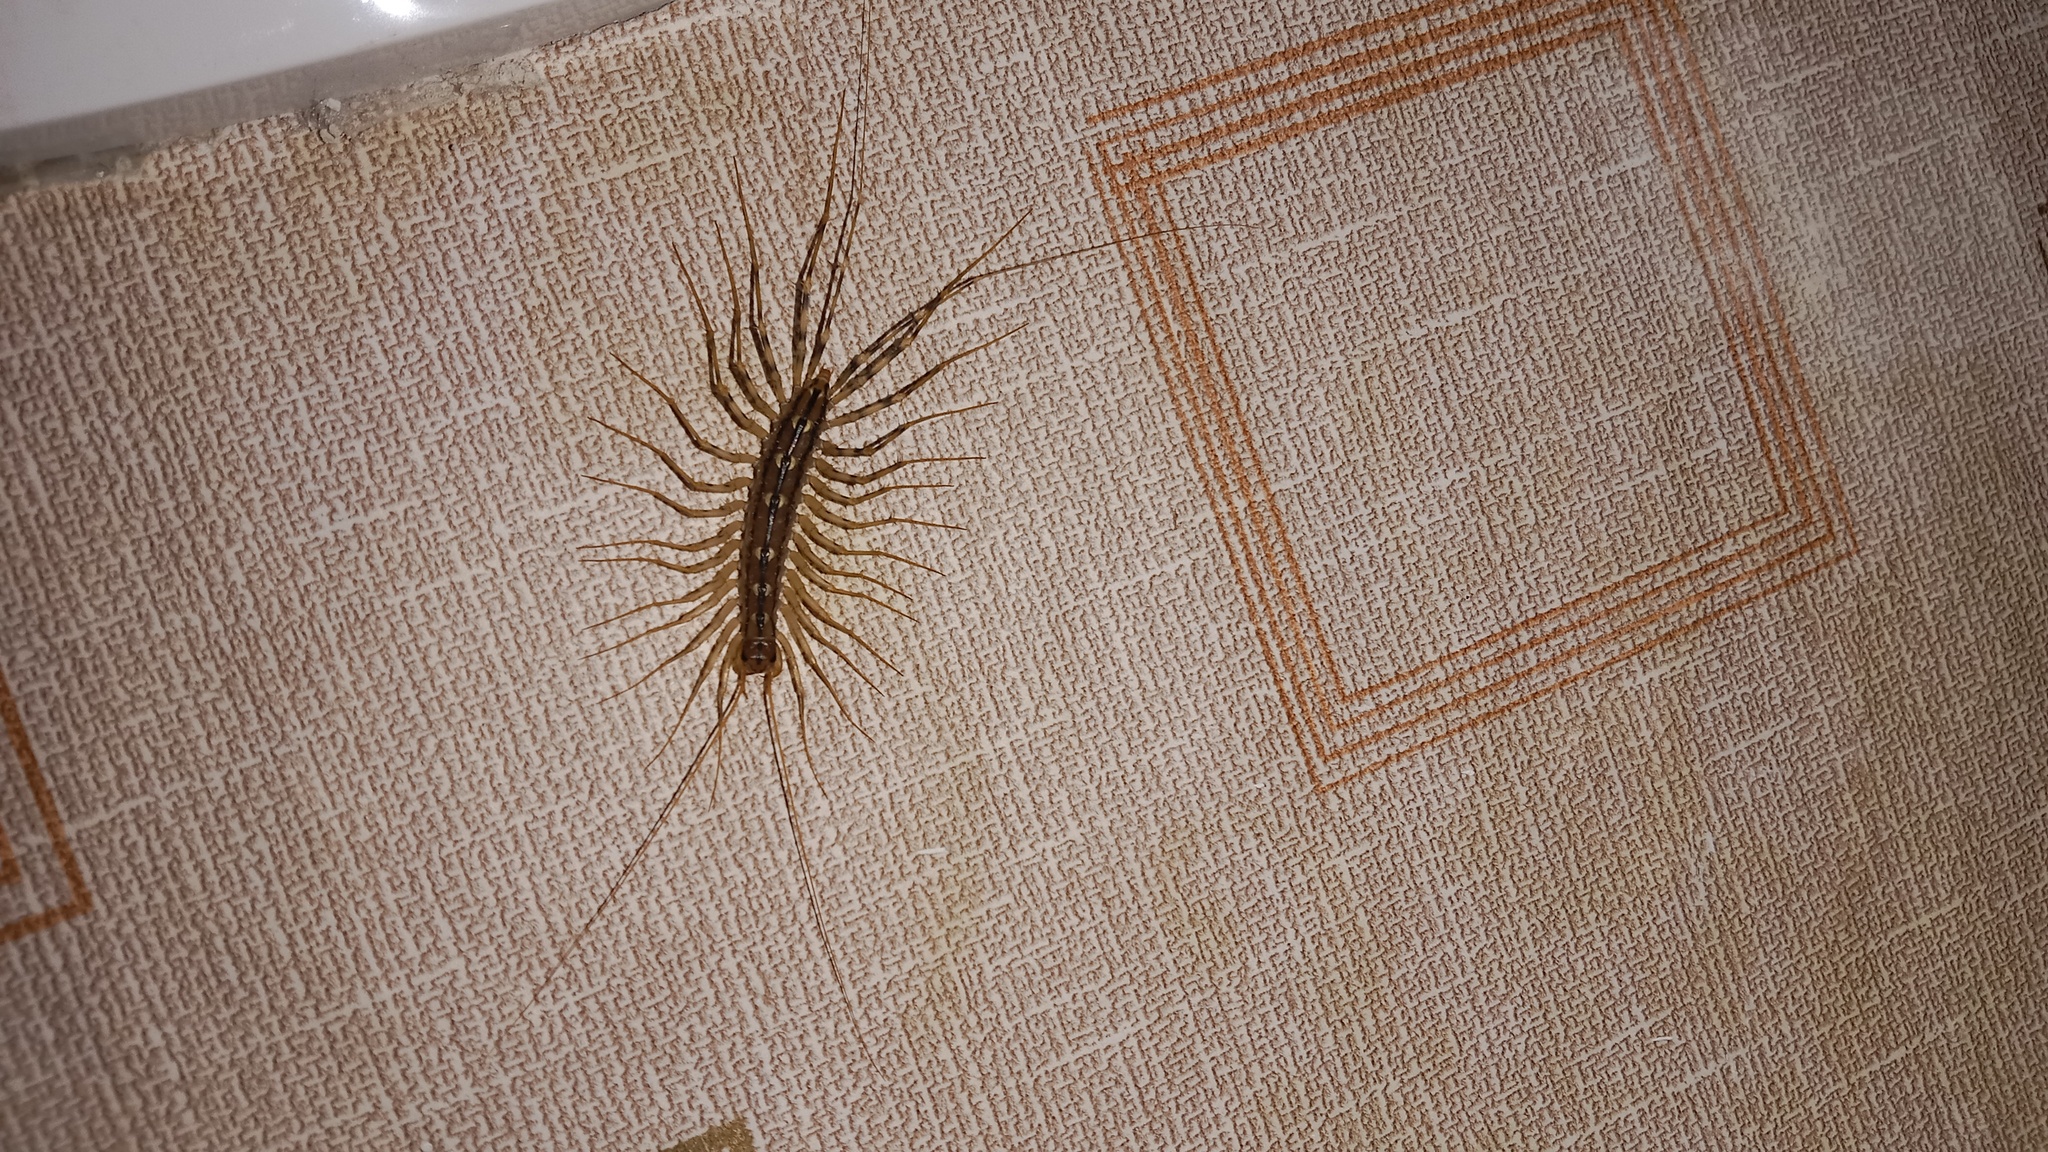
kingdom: Animalia
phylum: Arthropoda
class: Chilopoda
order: Scutigeromorpha
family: Scutigeridae
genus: Scutigera
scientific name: Scutigera coleoptrata
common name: House centipede
